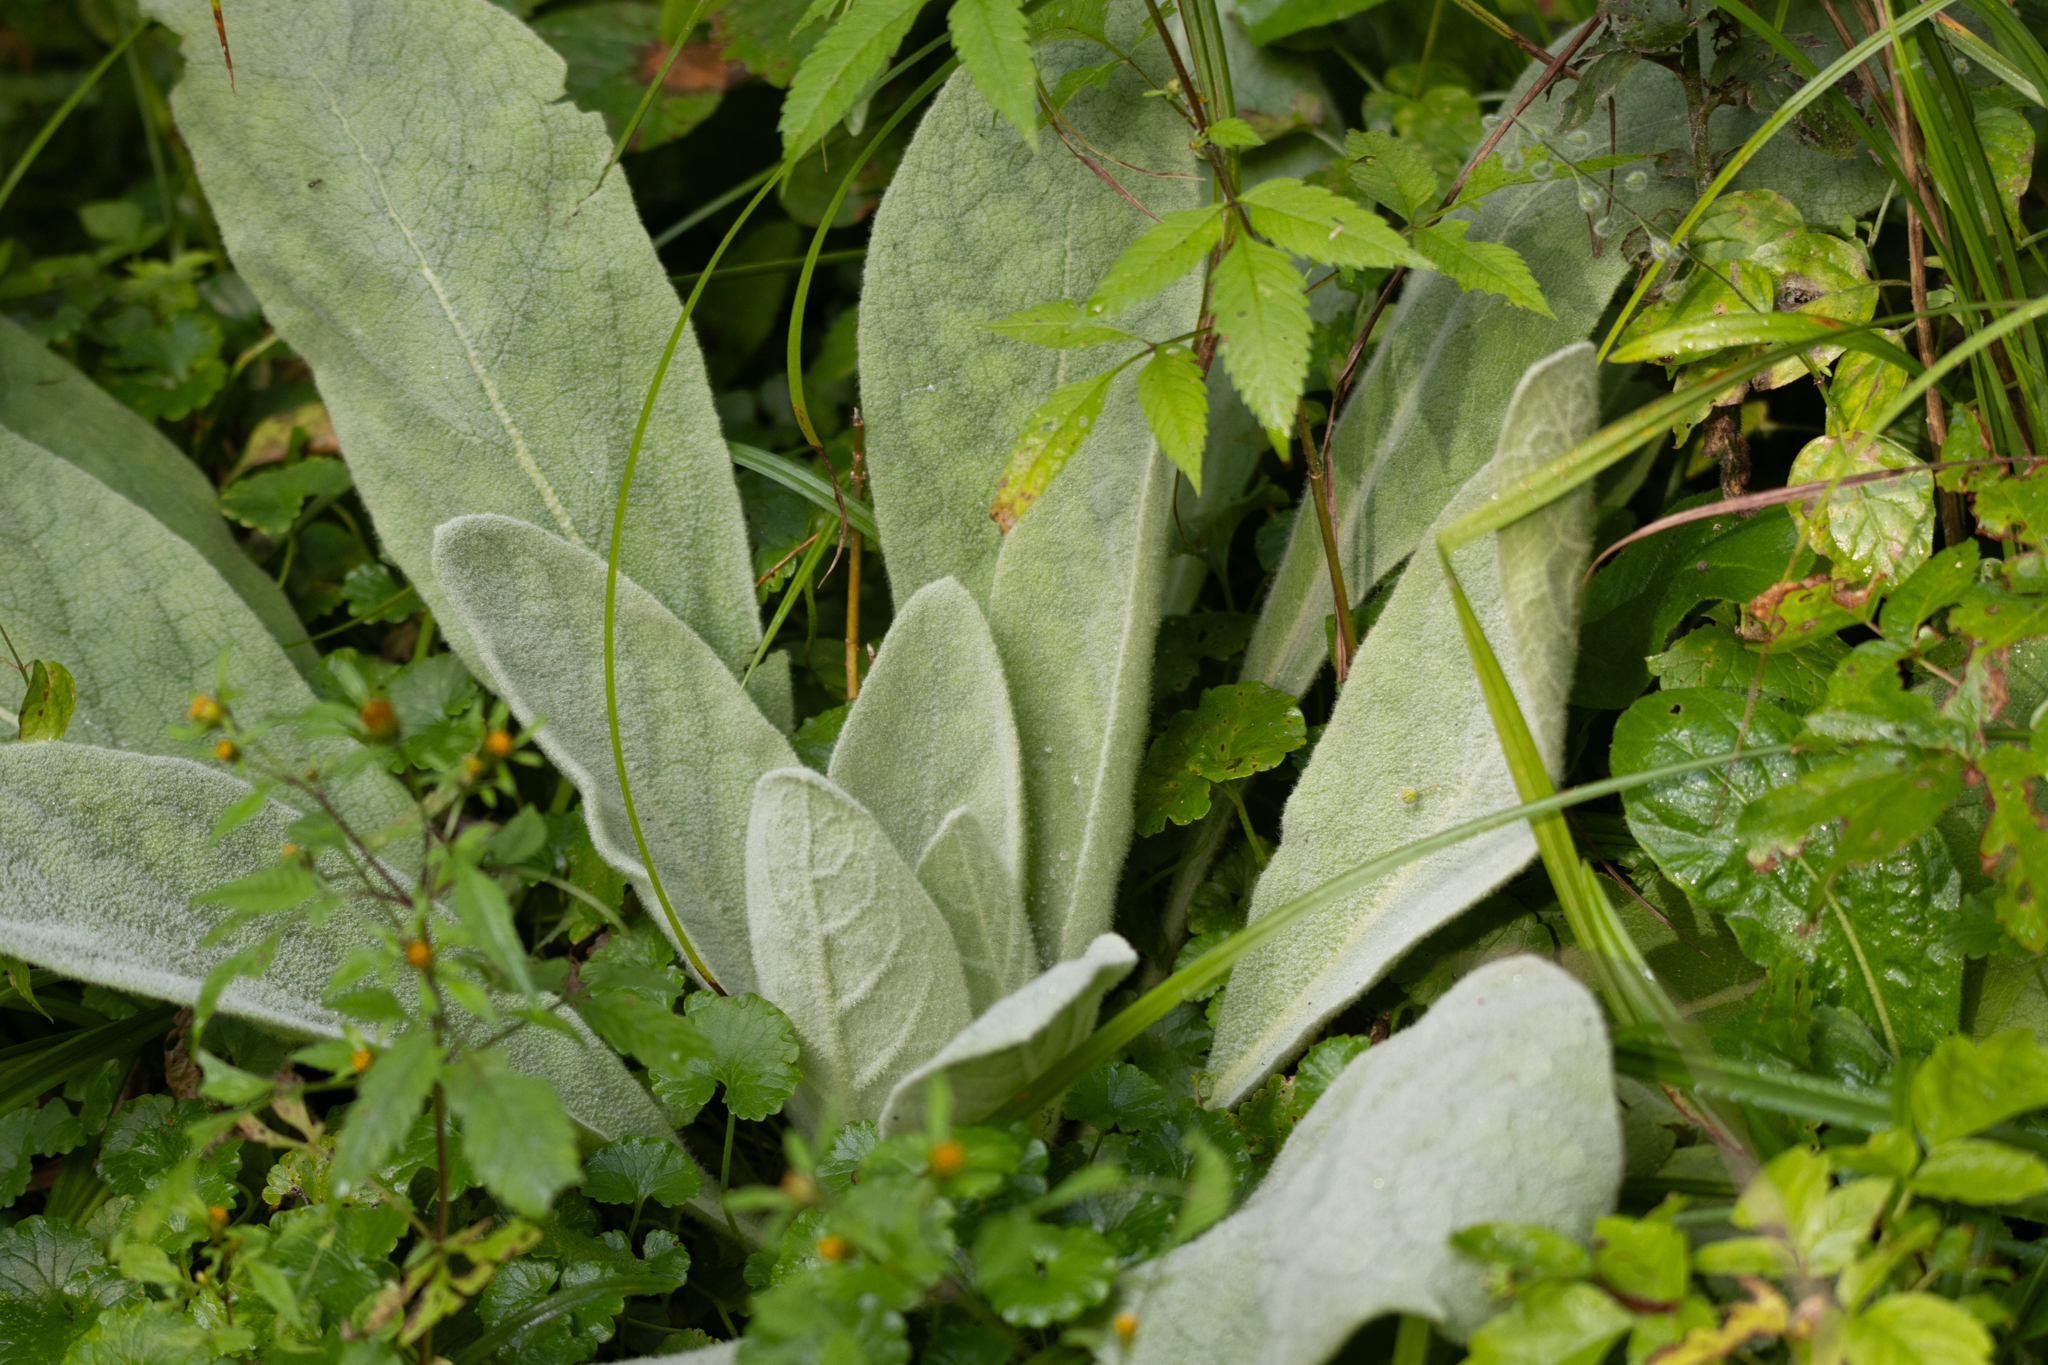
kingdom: Plantae
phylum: Tracheophyta
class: Magnoliopsida
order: Lamiales
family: Scrophulariaceae
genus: Verbascum
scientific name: Verbascum thapsus
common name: Common mullein
